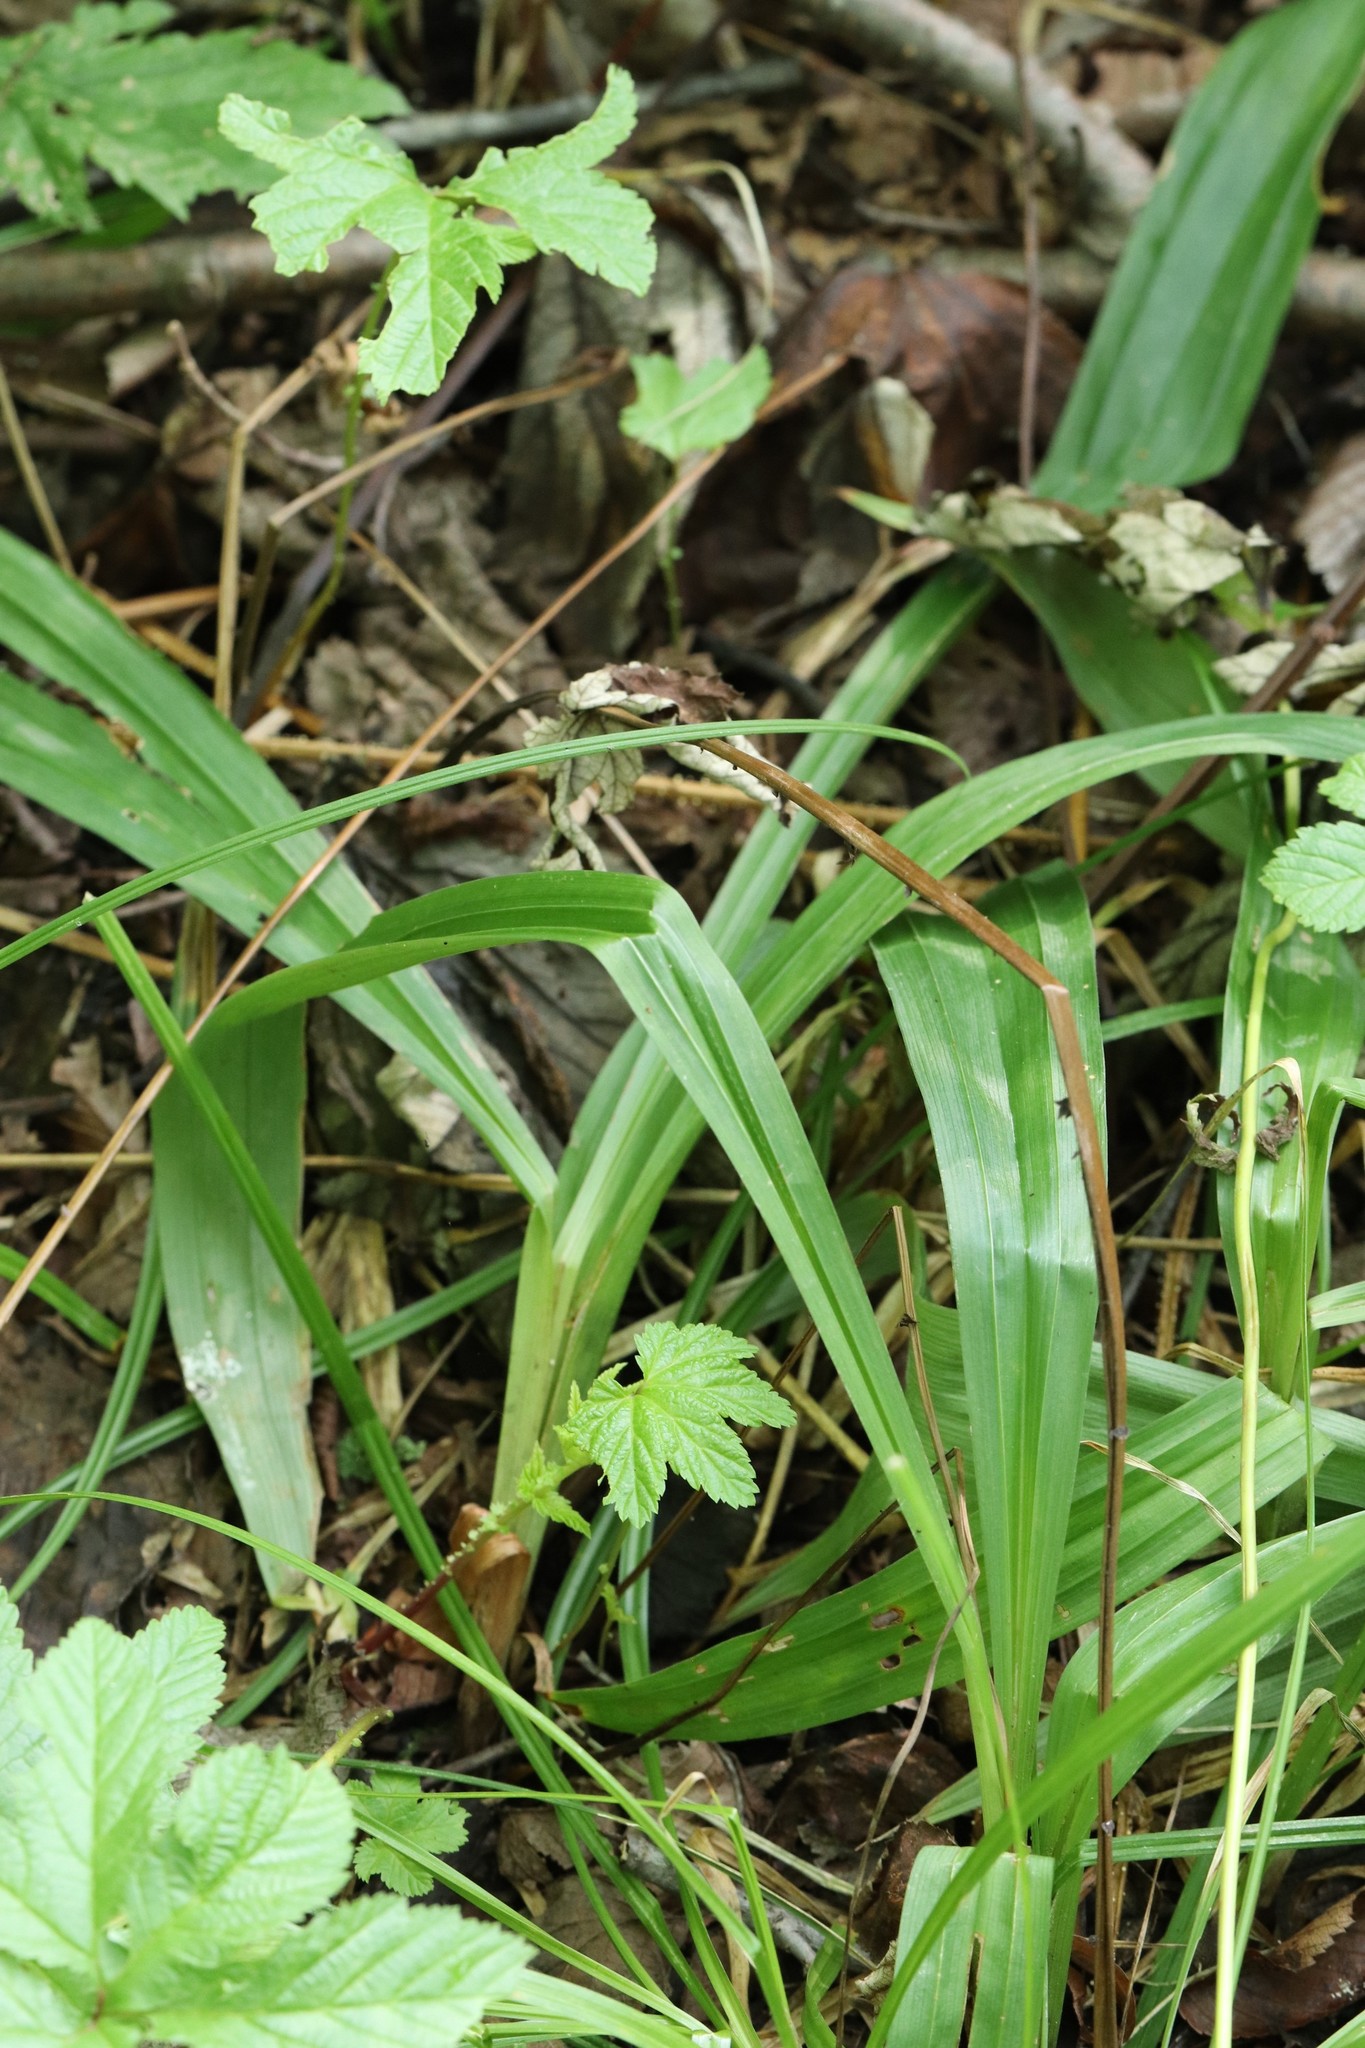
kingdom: Plantae
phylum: Tracheophyta
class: Liliopsida
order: Poales
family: Cyperaceae
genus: Carex
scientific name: Carex siderosticta
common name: Broadleaf sedge
